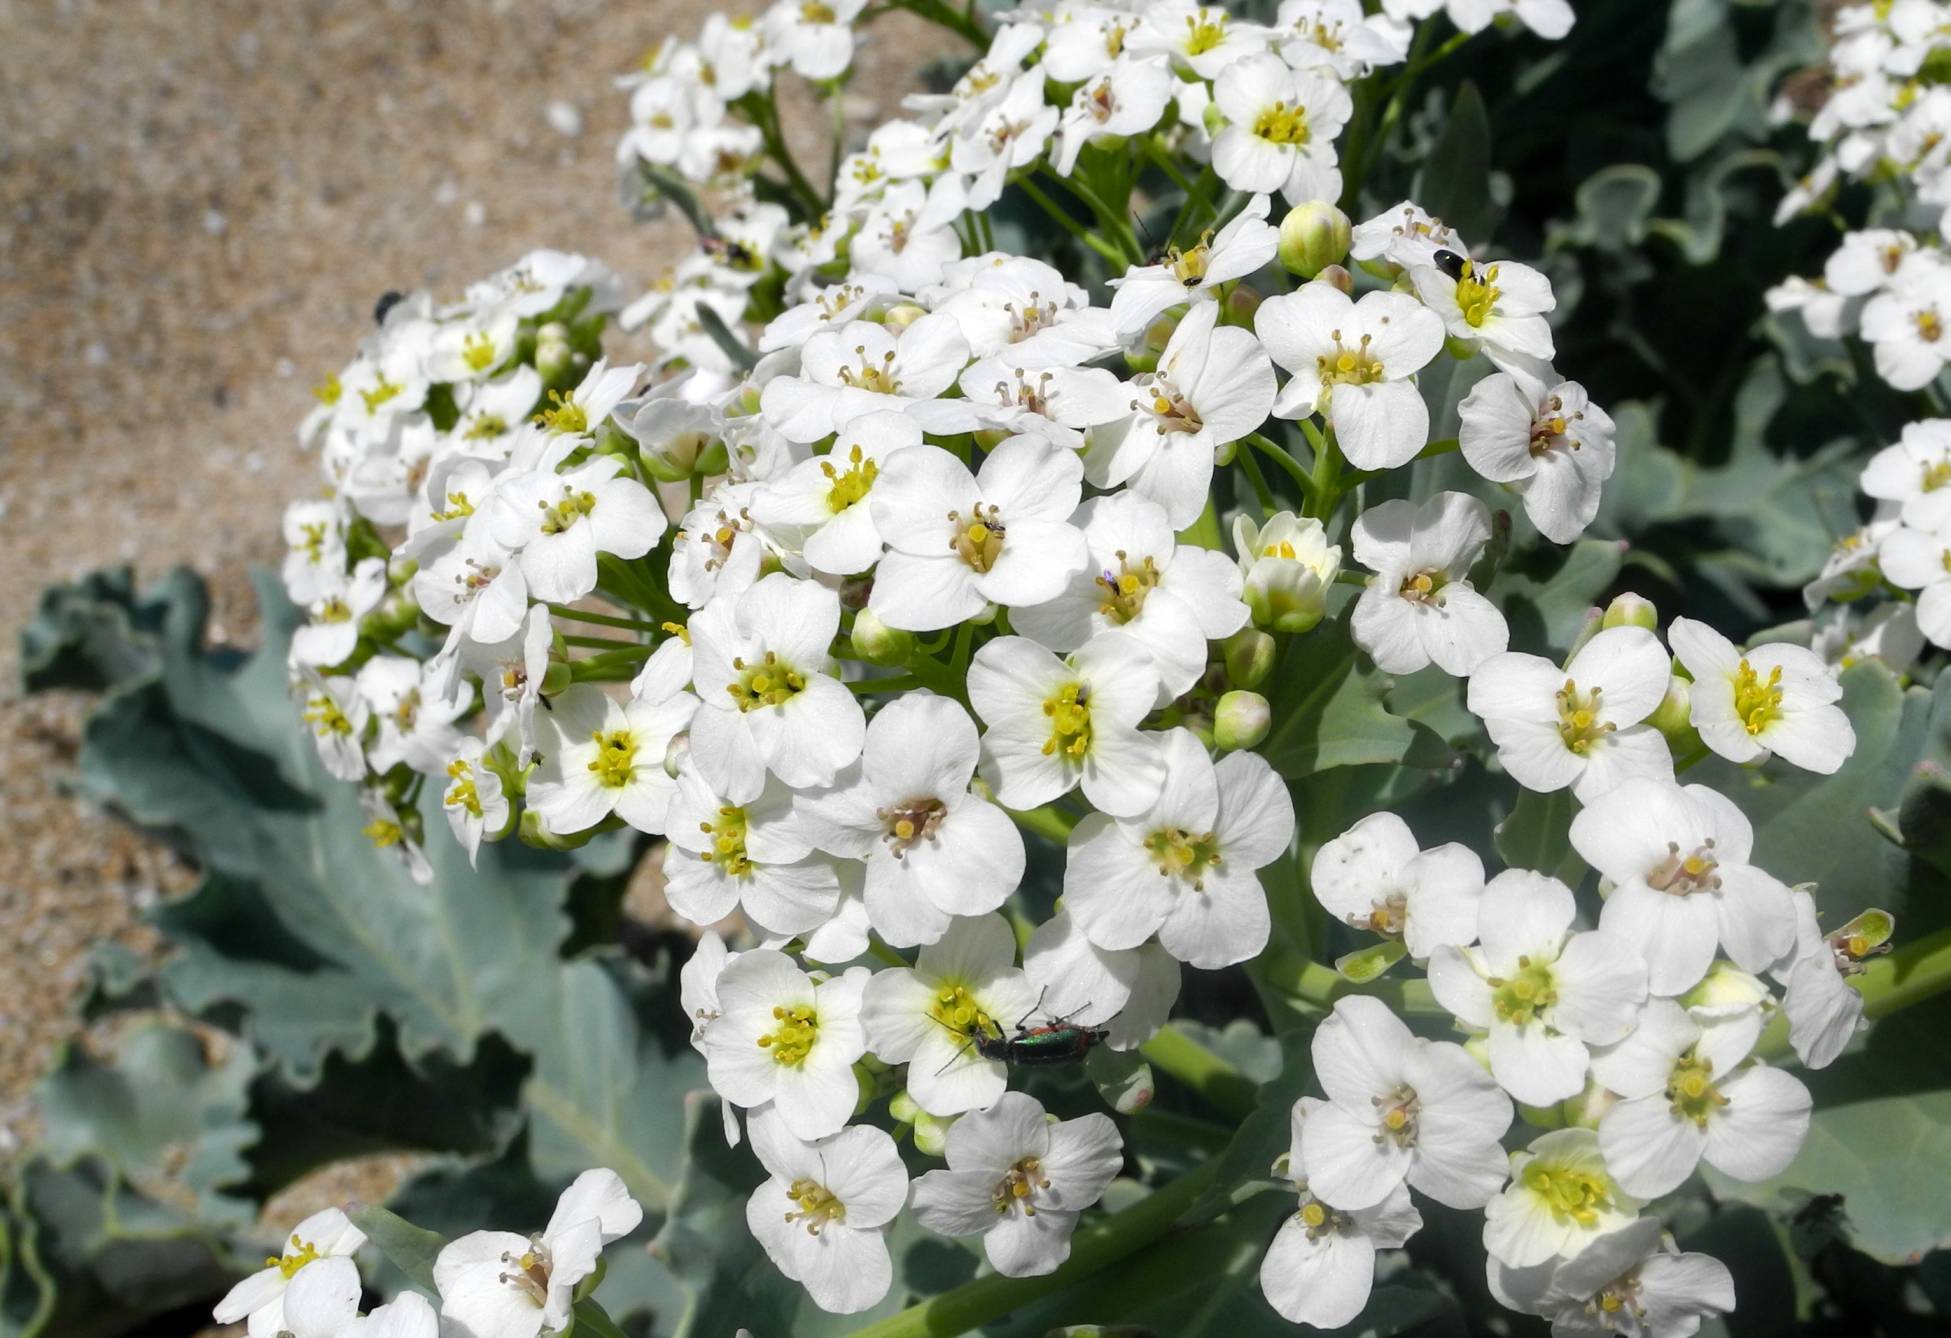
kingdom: Plantae
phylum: Tracheophyta
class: Magnoliopsida
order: Brassicales
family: Brassicaceae
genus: Crambe
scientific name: Crambe maritima
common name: Sea-kale
